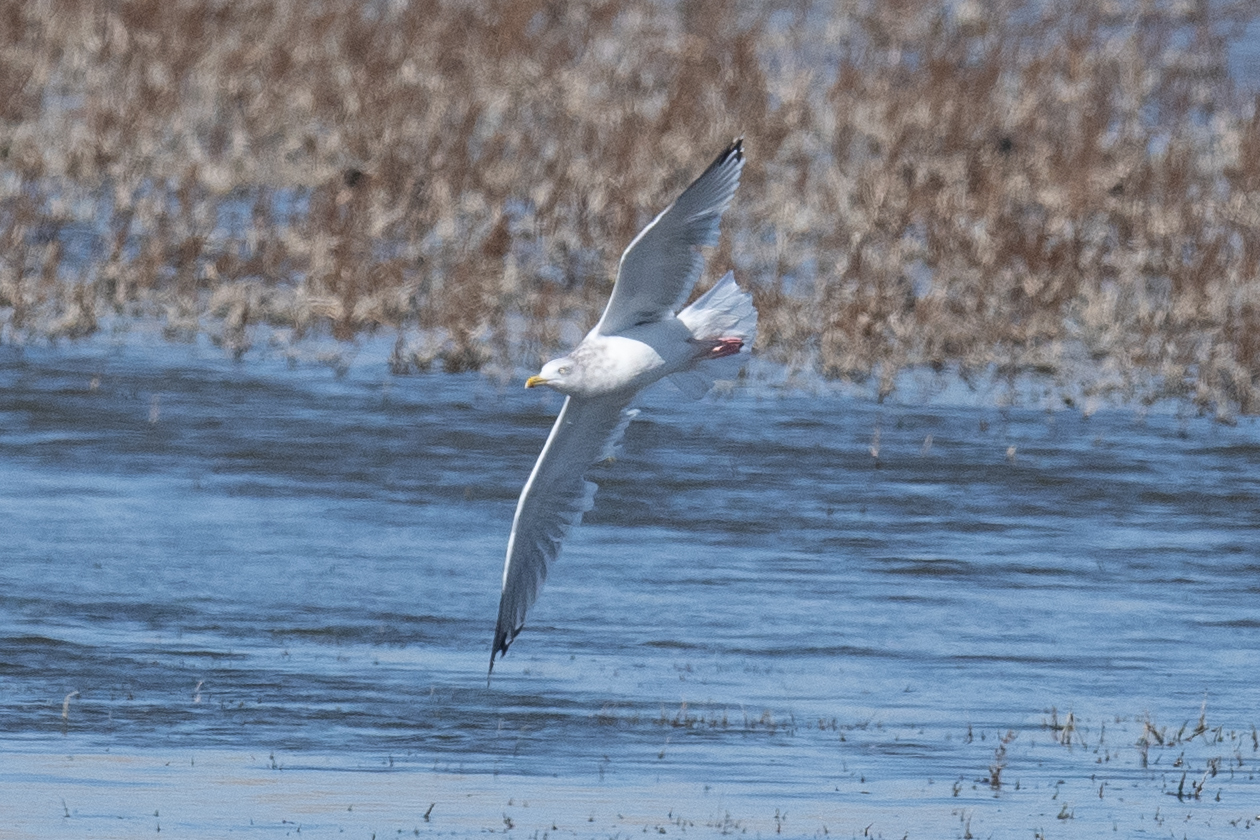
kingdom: Animalia
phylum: Chordata
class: Aves
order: Charadriiformes
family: Laridae
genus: Larus
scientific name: Larus argentatus
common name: Herring gull
